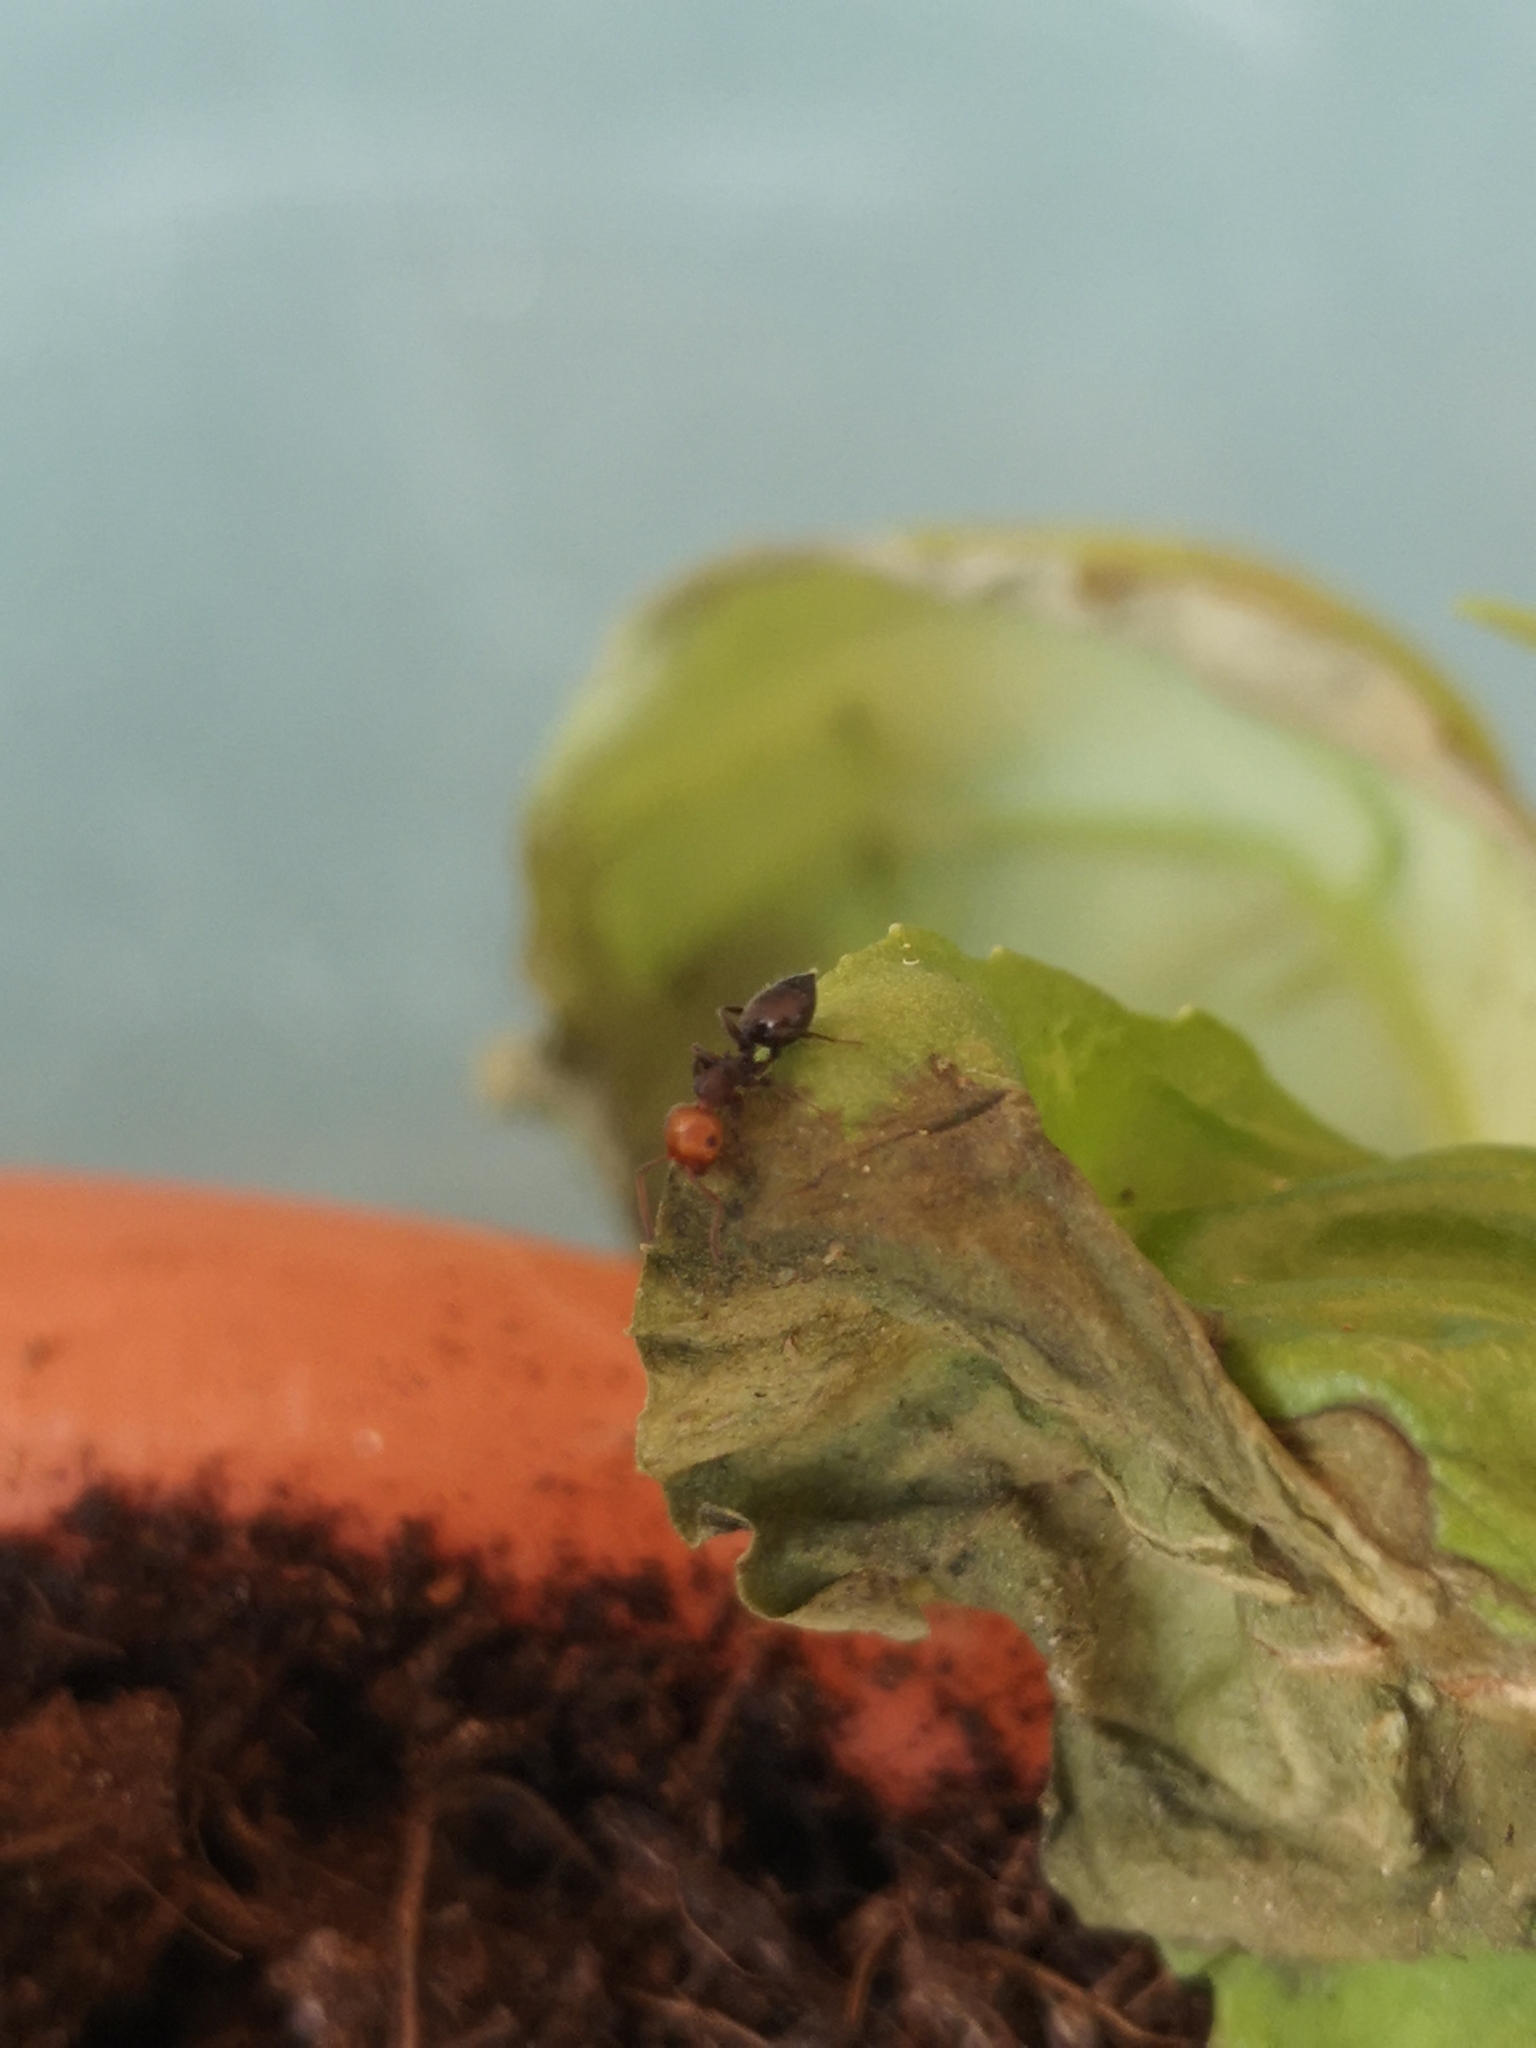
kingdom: Animalia
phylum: Arthropoda
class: Insecta
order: Hymenoptera
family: Formicidae
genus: Crematogaster
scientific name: Crematogaster scutellaris
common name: Fourmi du liège
